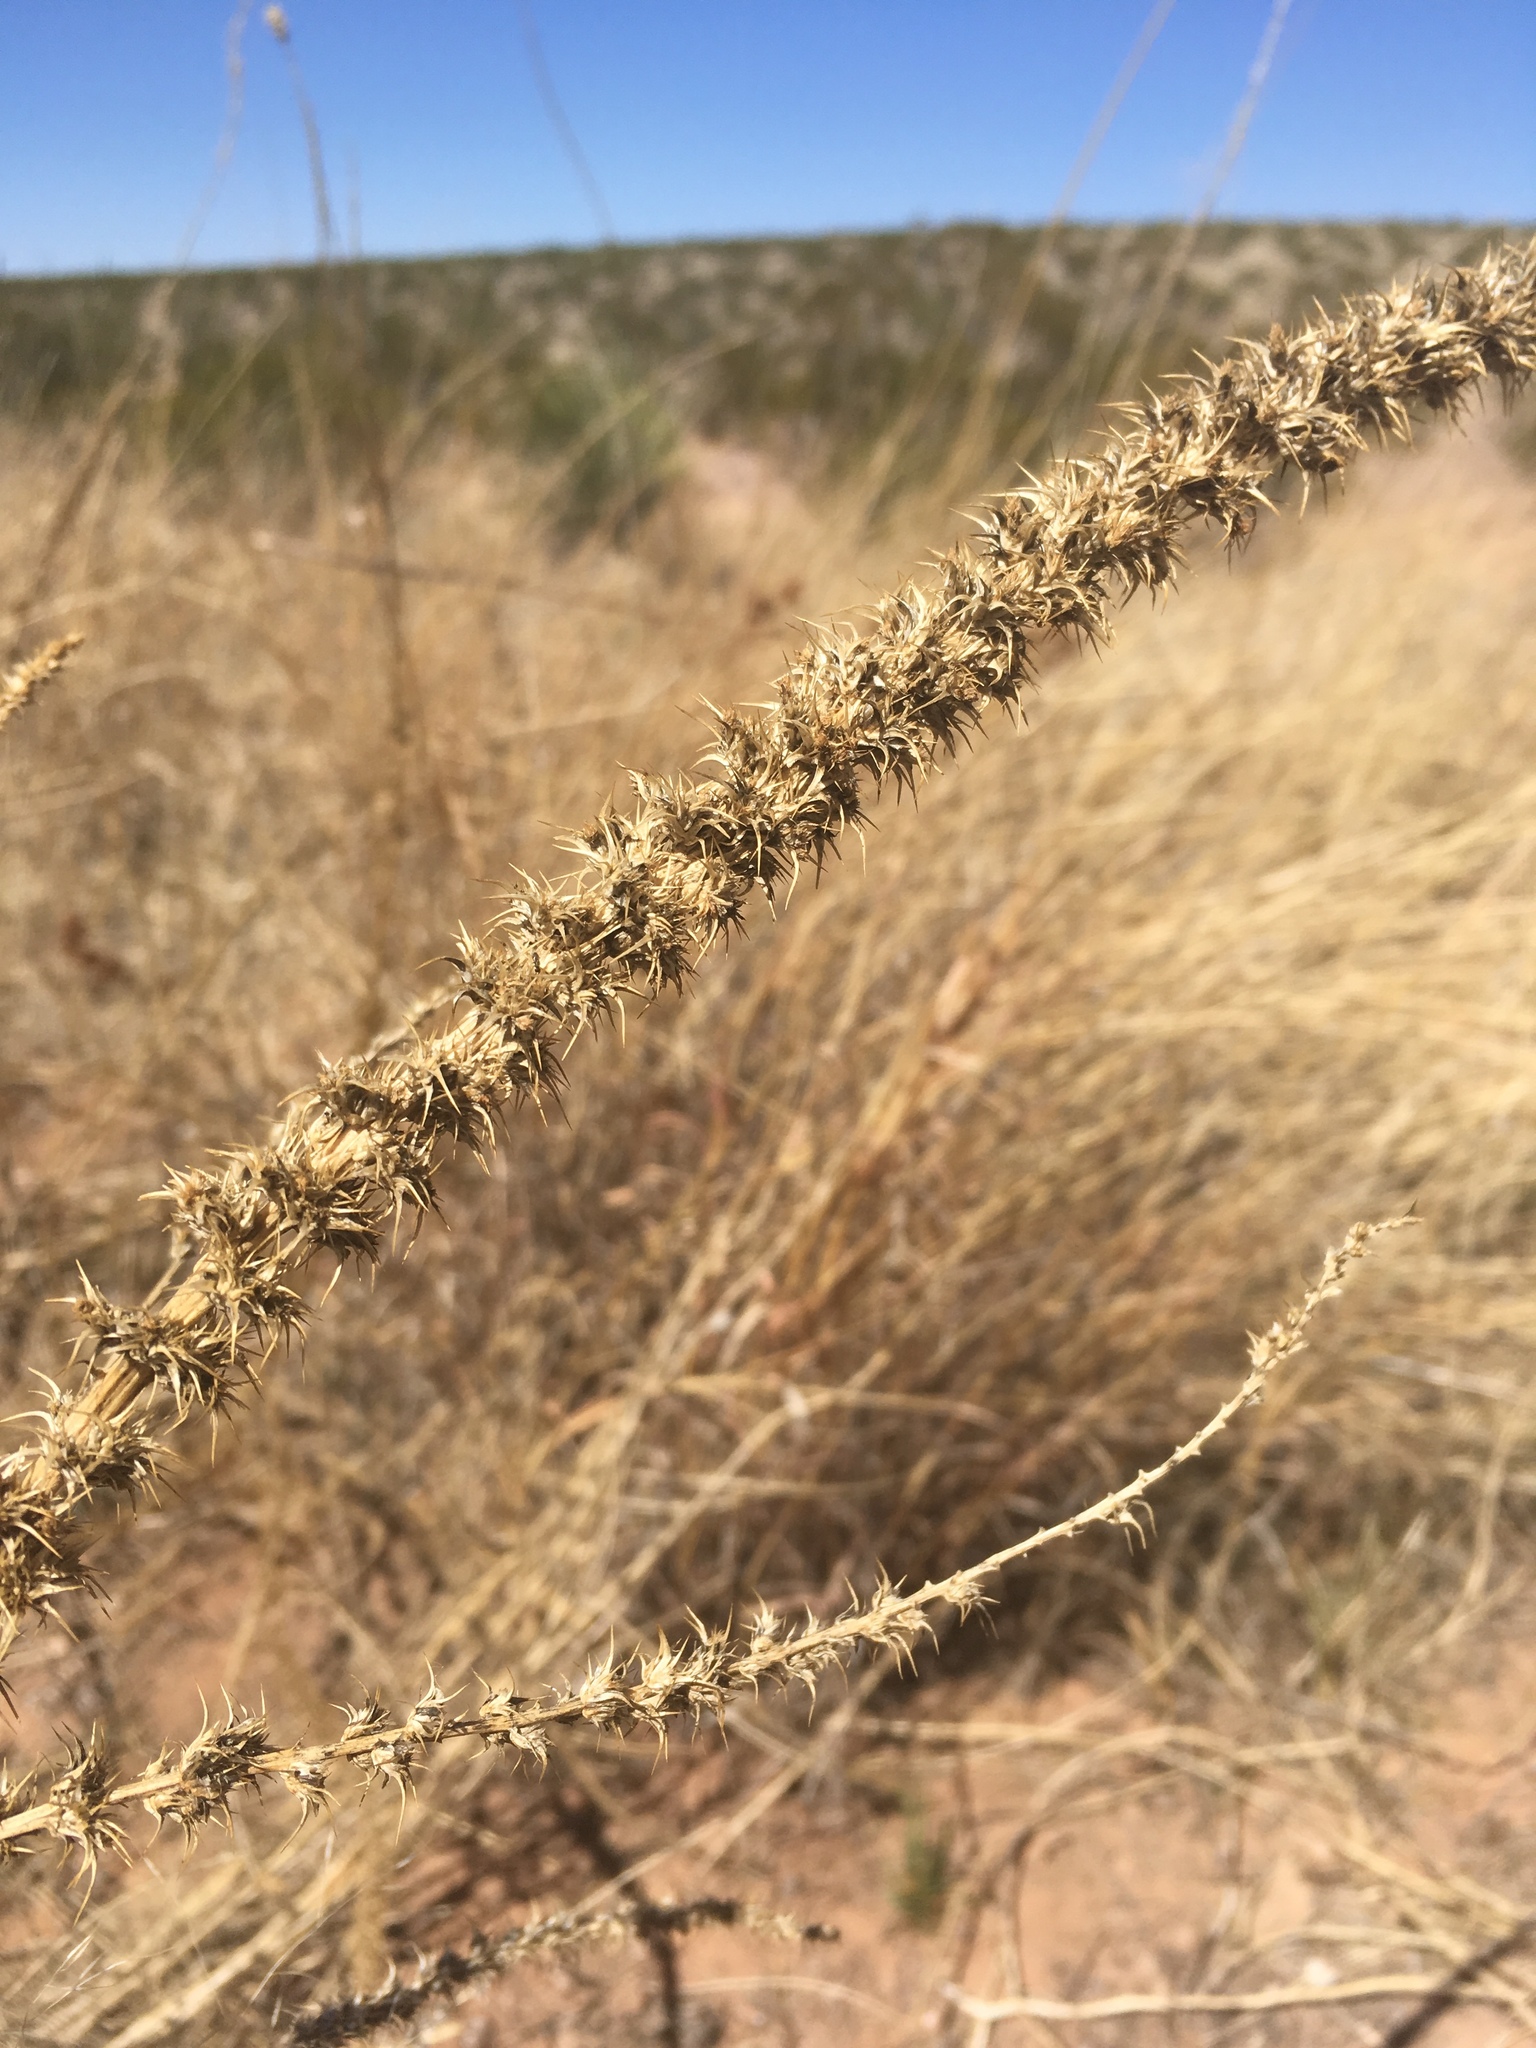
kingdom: Plantae
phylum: Tracheophyta
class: Magnoliopsida
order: Caryophyllales
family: Amaranthaceae
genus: Amaranthus
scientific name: Amaranthus palmeri
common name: Dioecious amaranth
